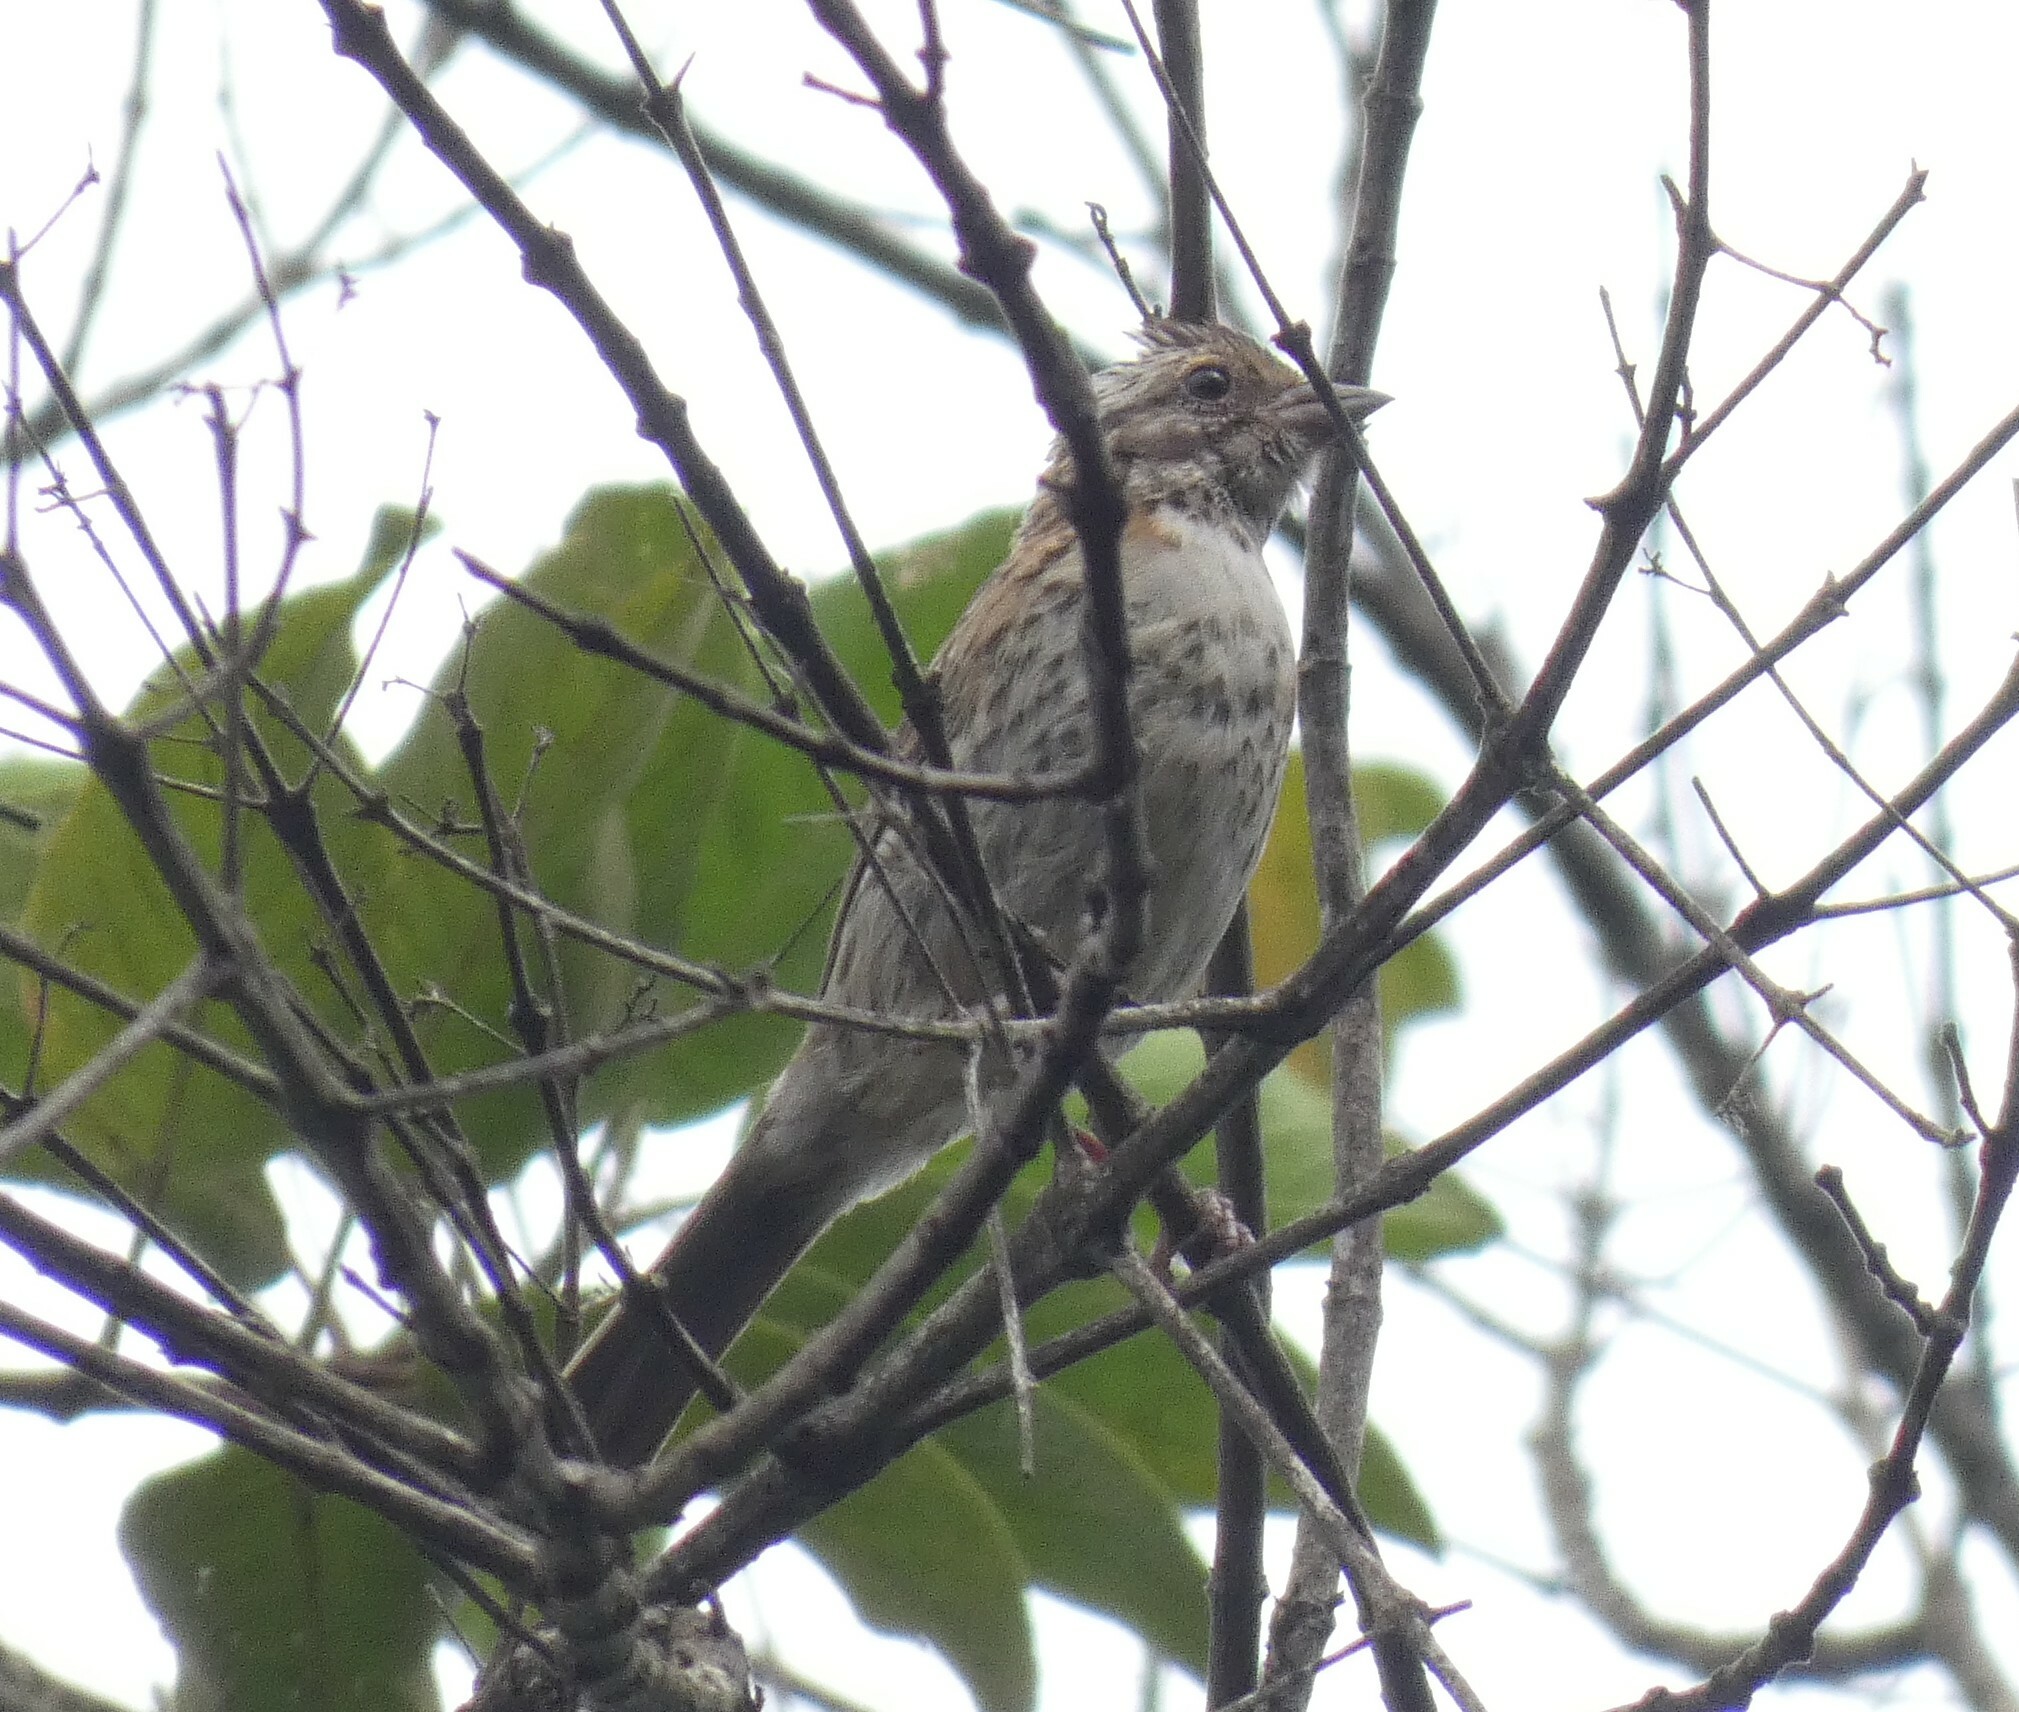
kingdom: Animalia
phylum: Chordata
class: Aves
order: Passeriformes
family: Passerellidae
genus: Zonotrichia
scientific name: Zonotrichia capensis
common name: Rufous-collared sparrow
